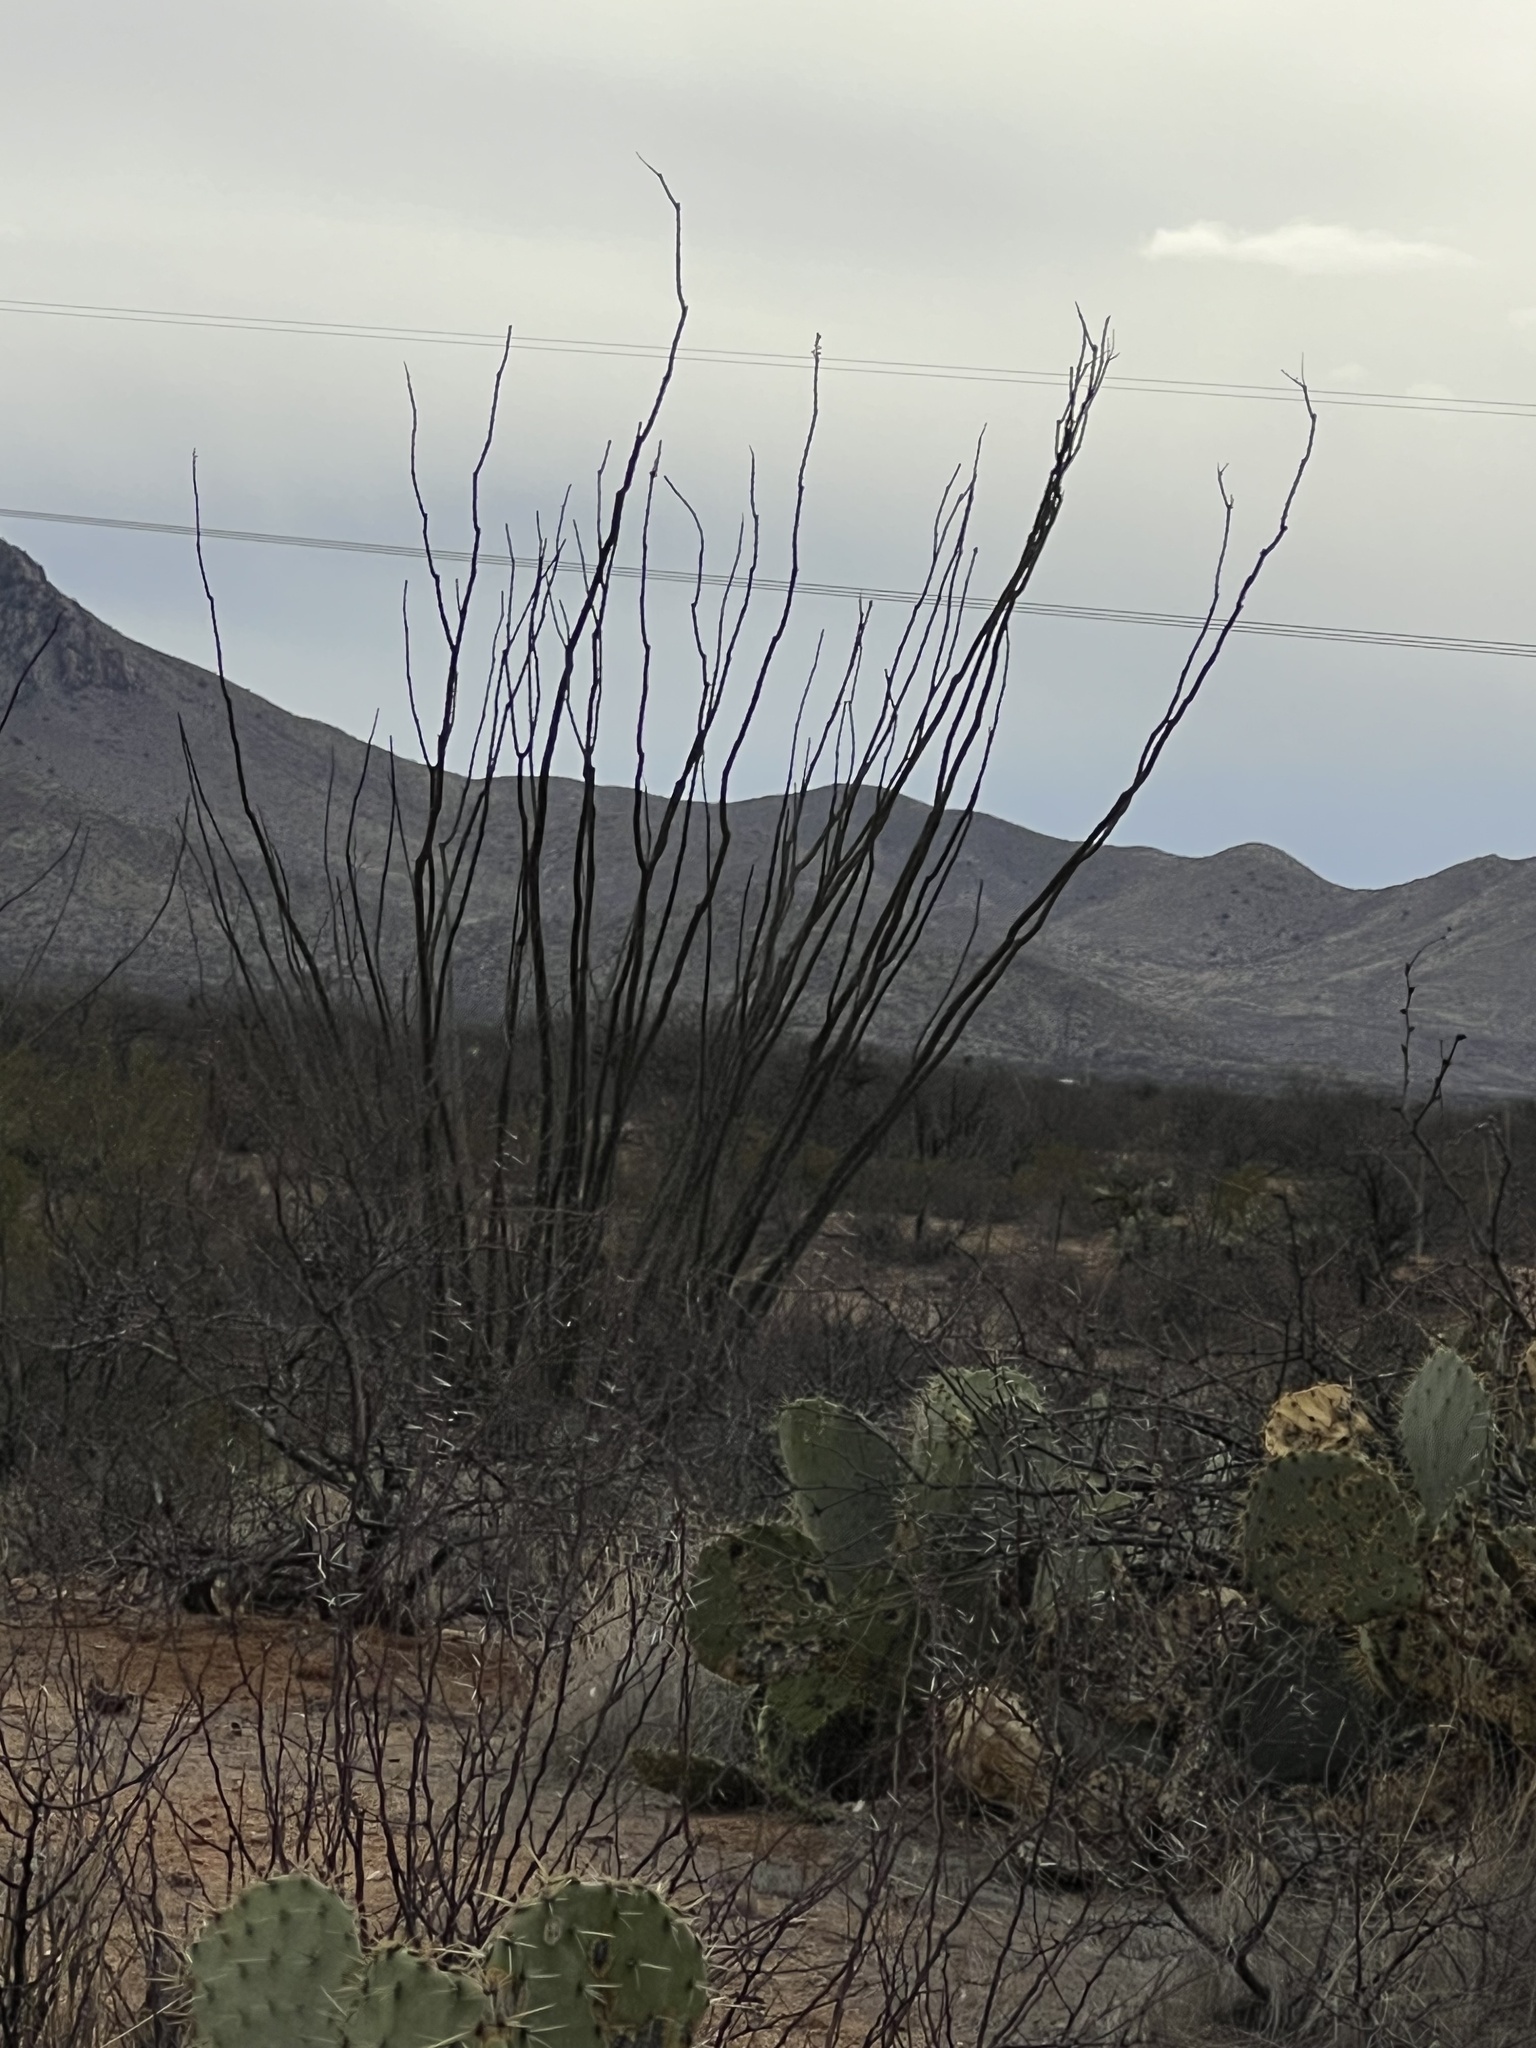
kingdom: Plantae
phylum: Tracheophyta
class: Magnoliopsida
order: Ericales
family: Fouquieriaceae
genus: Fouquieria
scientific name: Fouquieria splendens
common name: Vine-cactus
